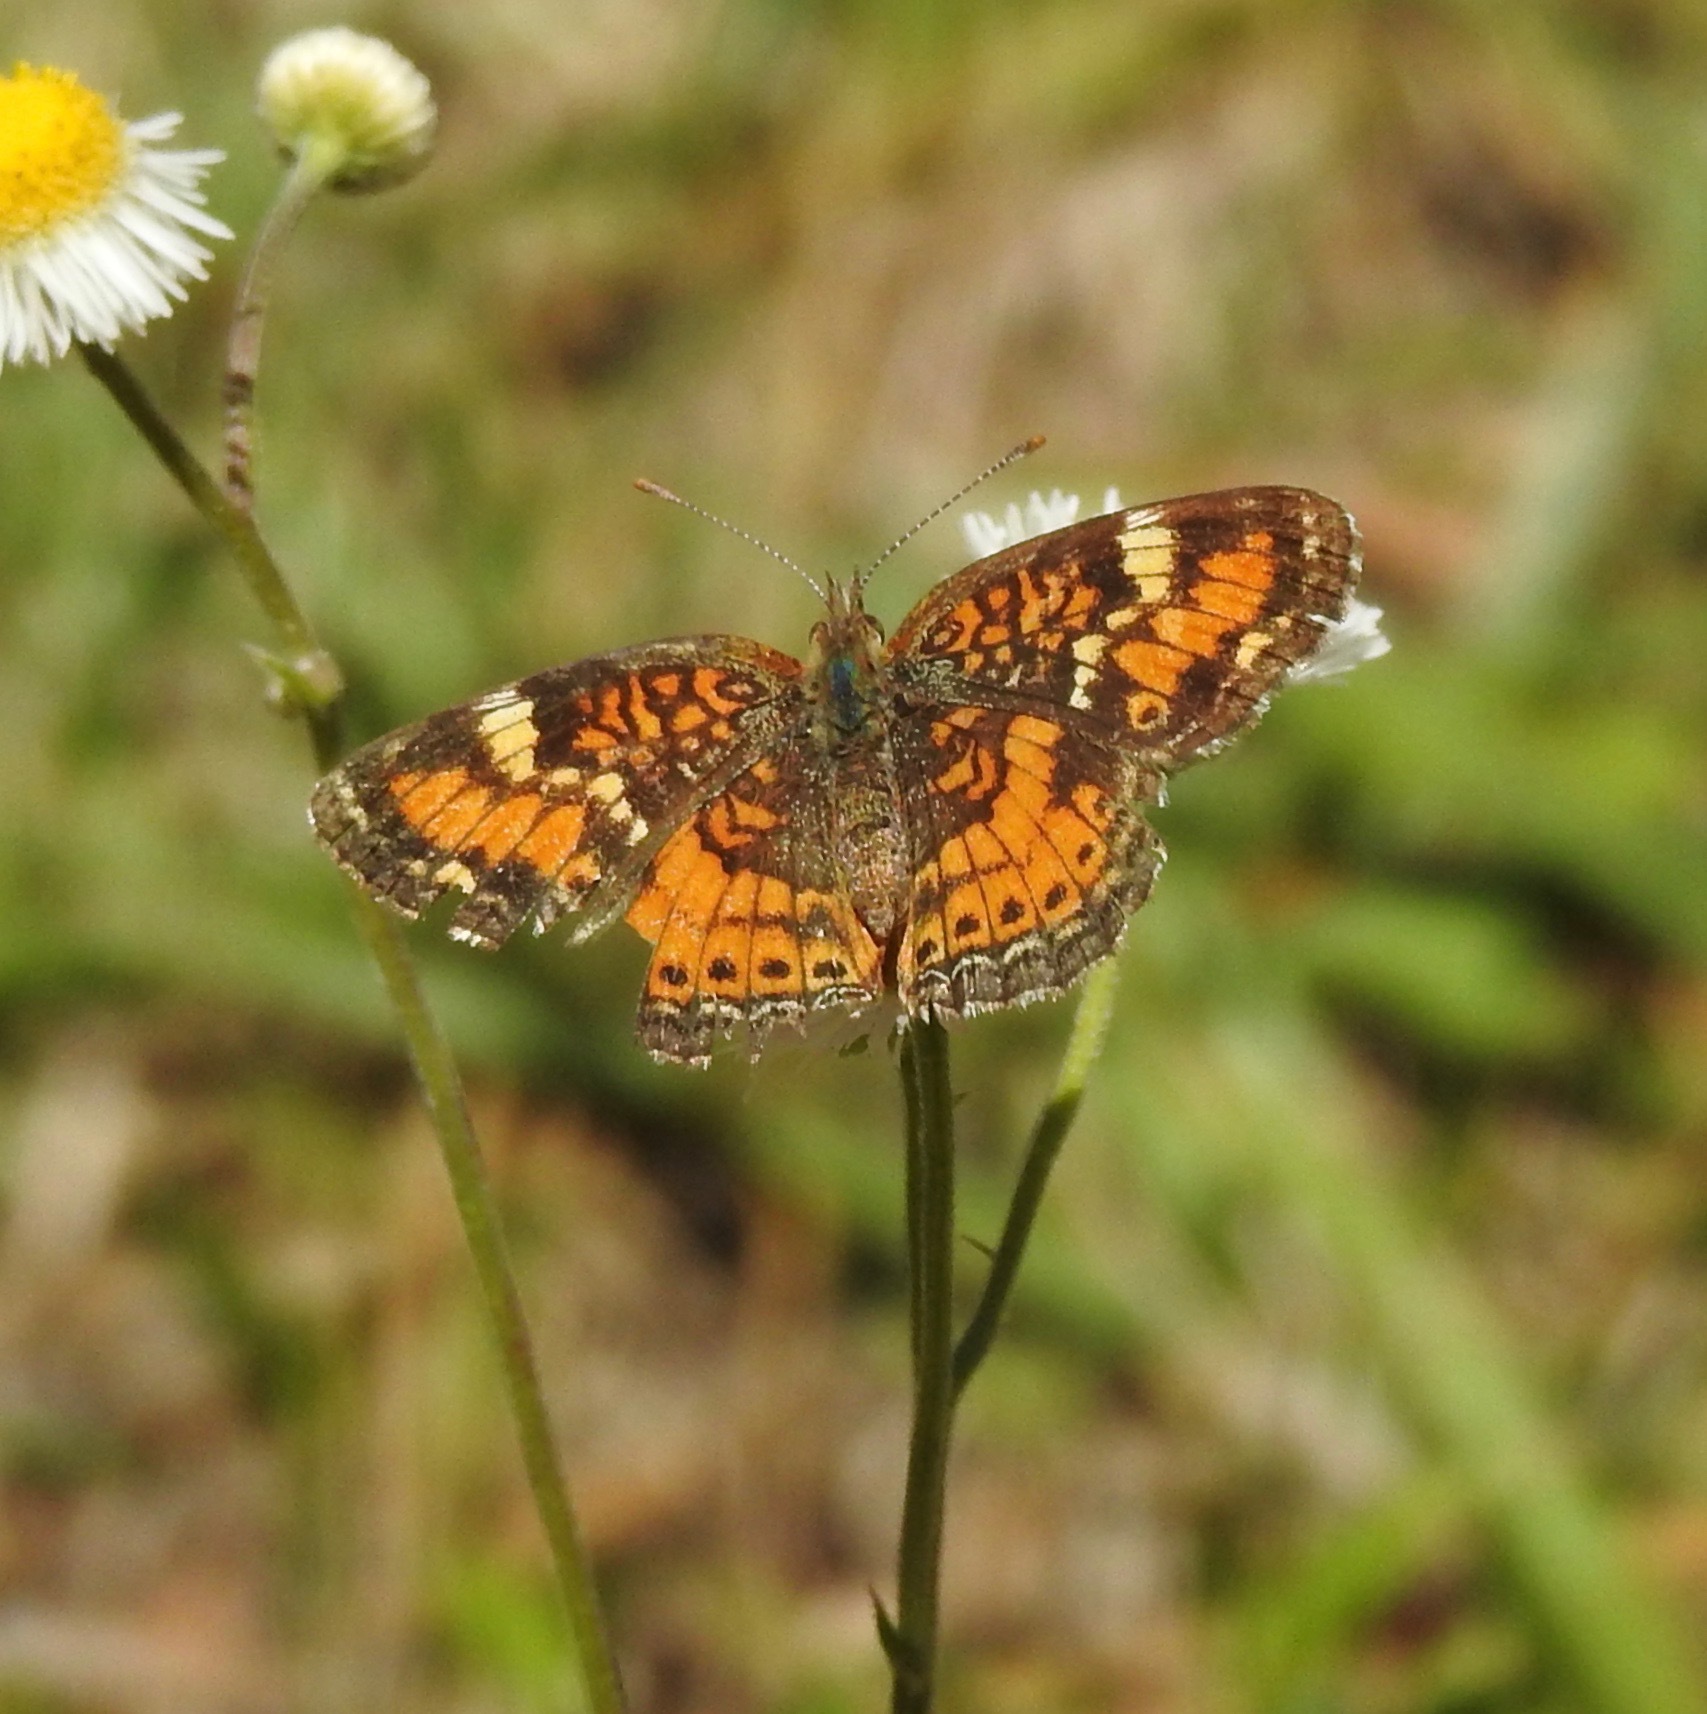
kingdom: Animalia
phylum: Arthropoda
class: Insecta
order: Lepidoptera
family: Nymphalidae
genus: Phyciodes
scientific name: Phyciodes phaon
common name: Phaon crescent
